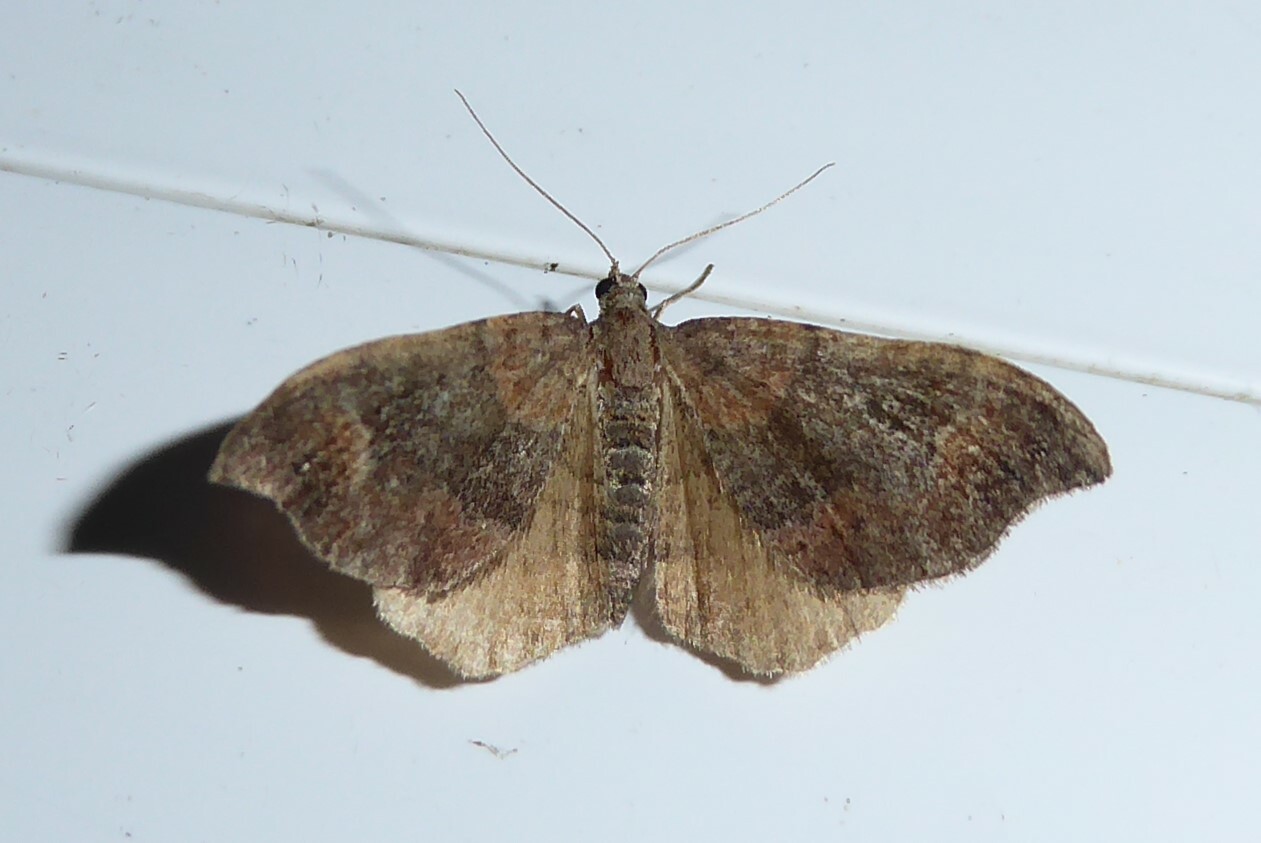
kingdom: Animalia
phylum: Arthropoda
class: Insecta
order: Lepidoptera
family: Geometridae
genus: Homodotis
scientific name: Homodotis megaspilata
